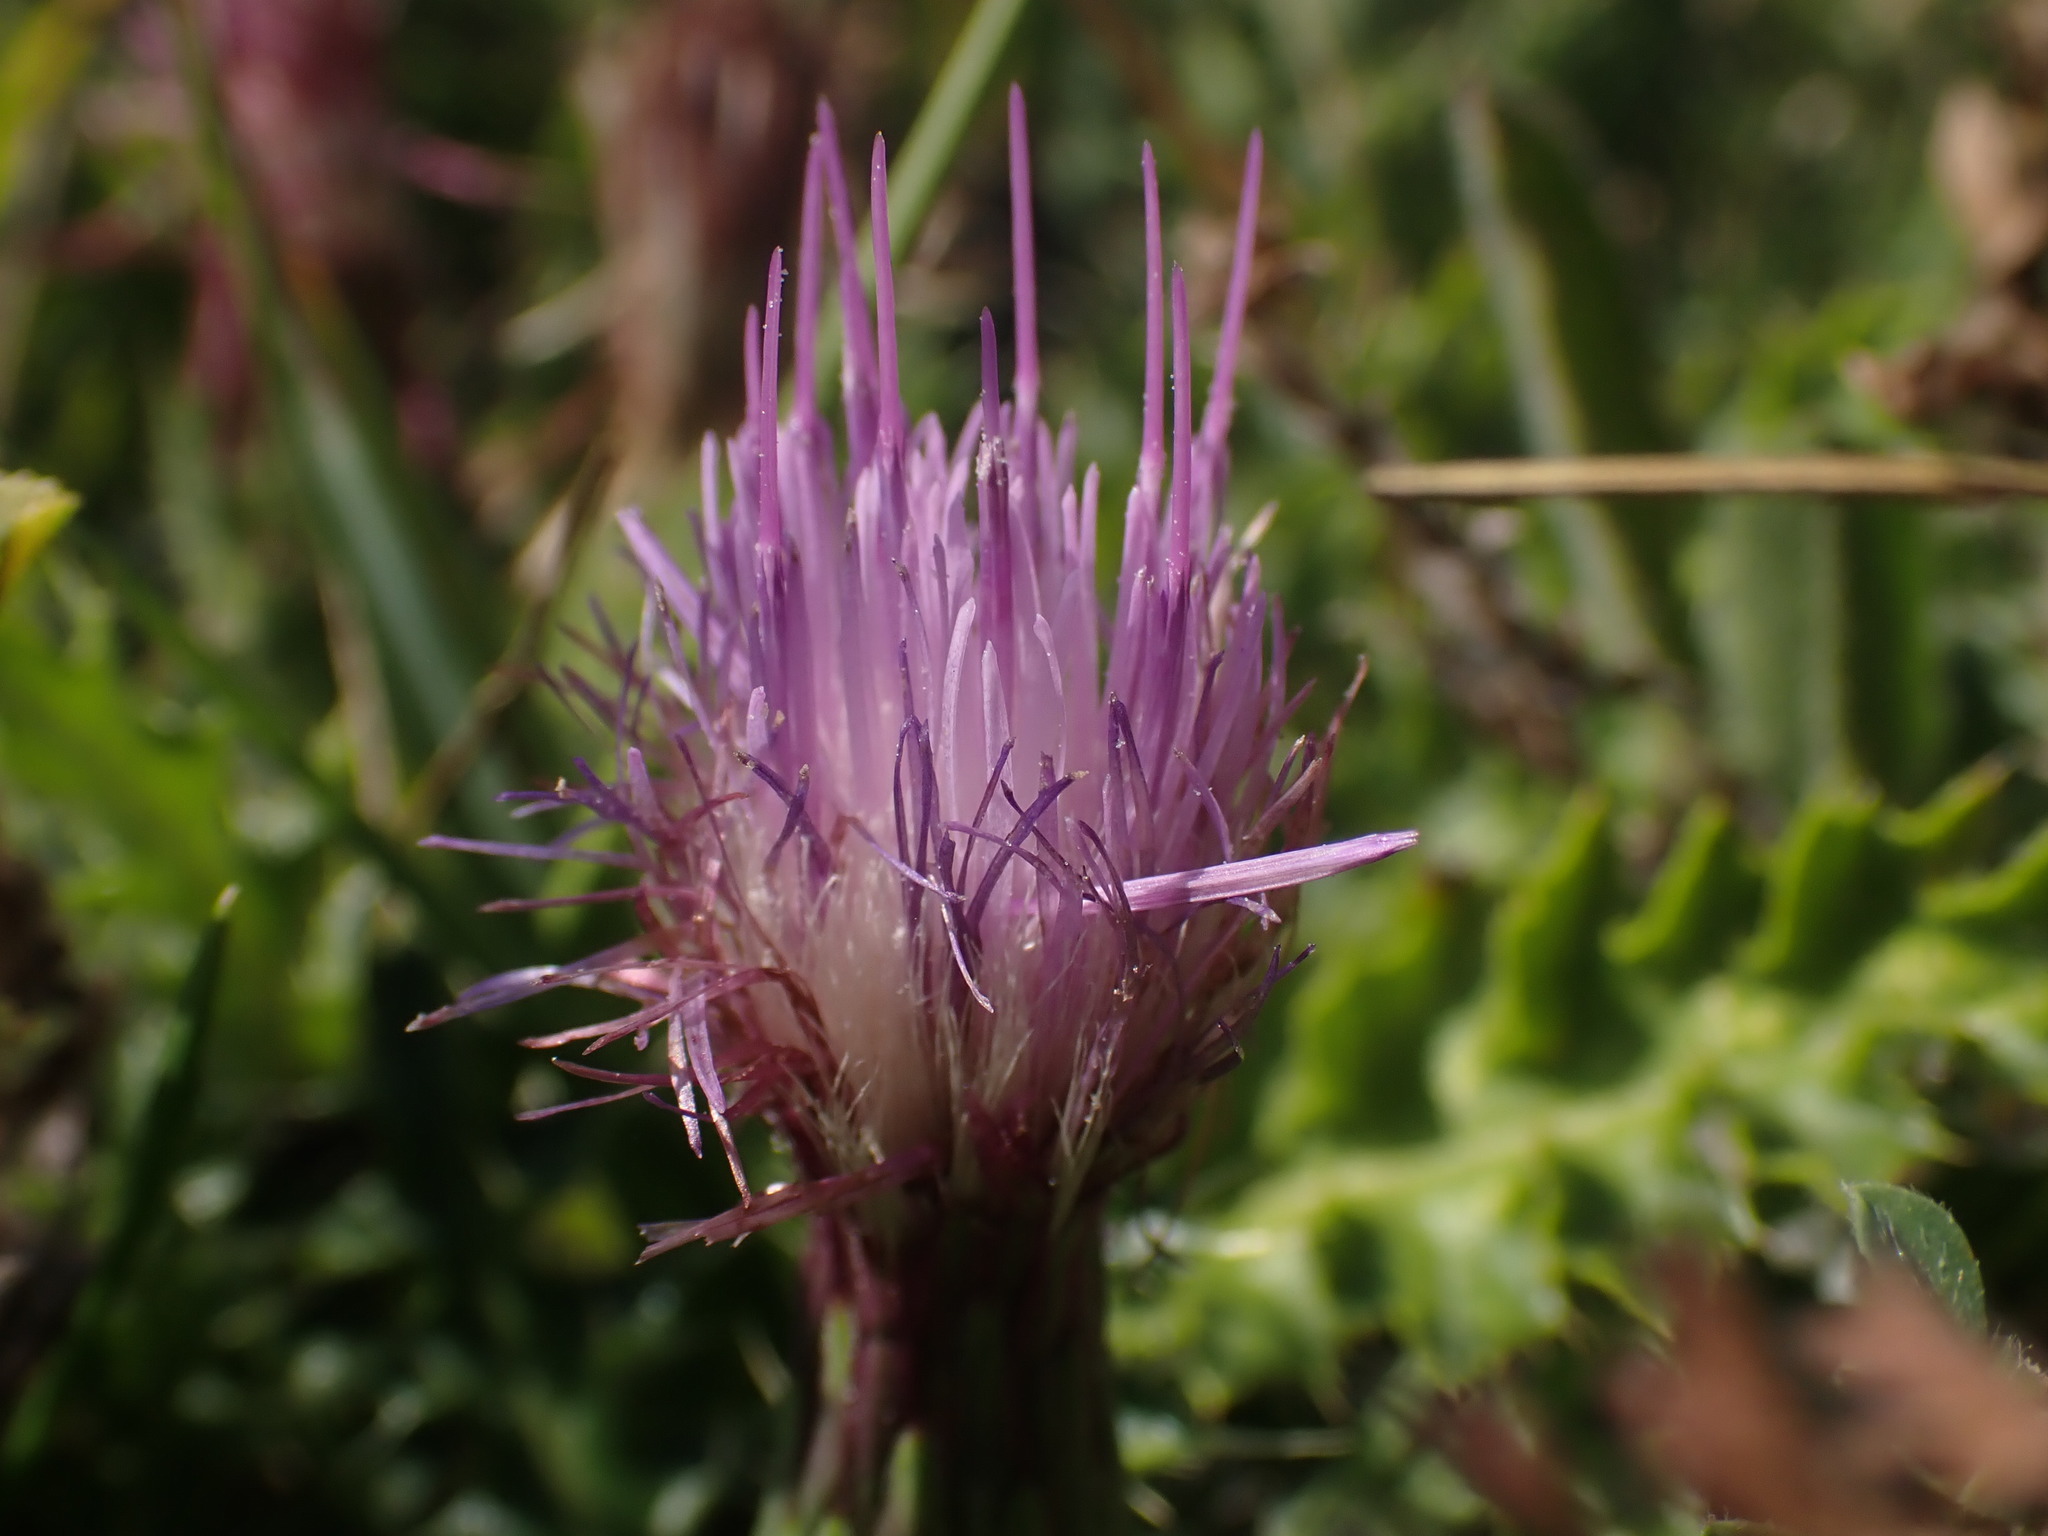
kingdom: Plantae
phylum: Tracheophyta
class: Magnoliopsida
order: Asterales
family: Asteraceae
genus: Cirsium
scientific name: Cirsium acaulon
